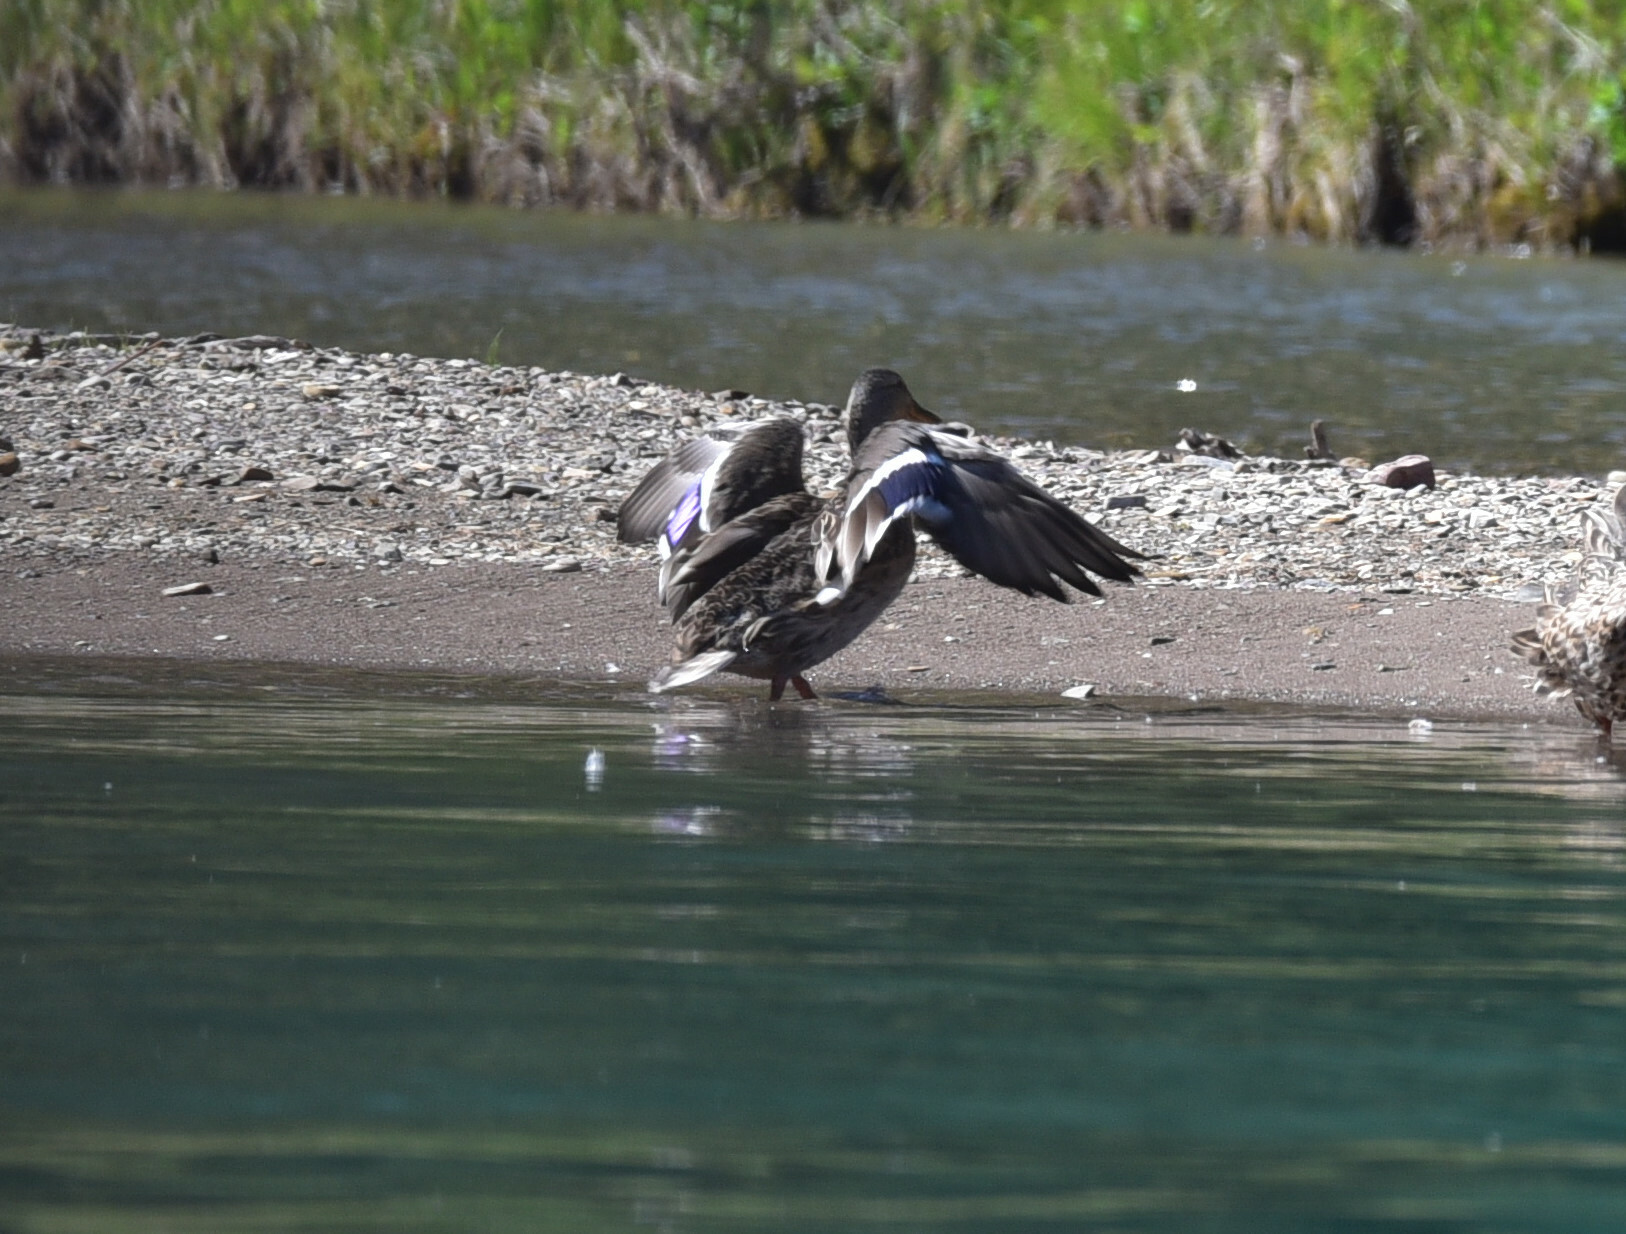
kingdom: Animalia
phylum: Chordata
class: Aves
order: Anseriformes
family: Anatidae
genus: Anas
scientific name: Anas platyrhynchos
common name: Mallard
